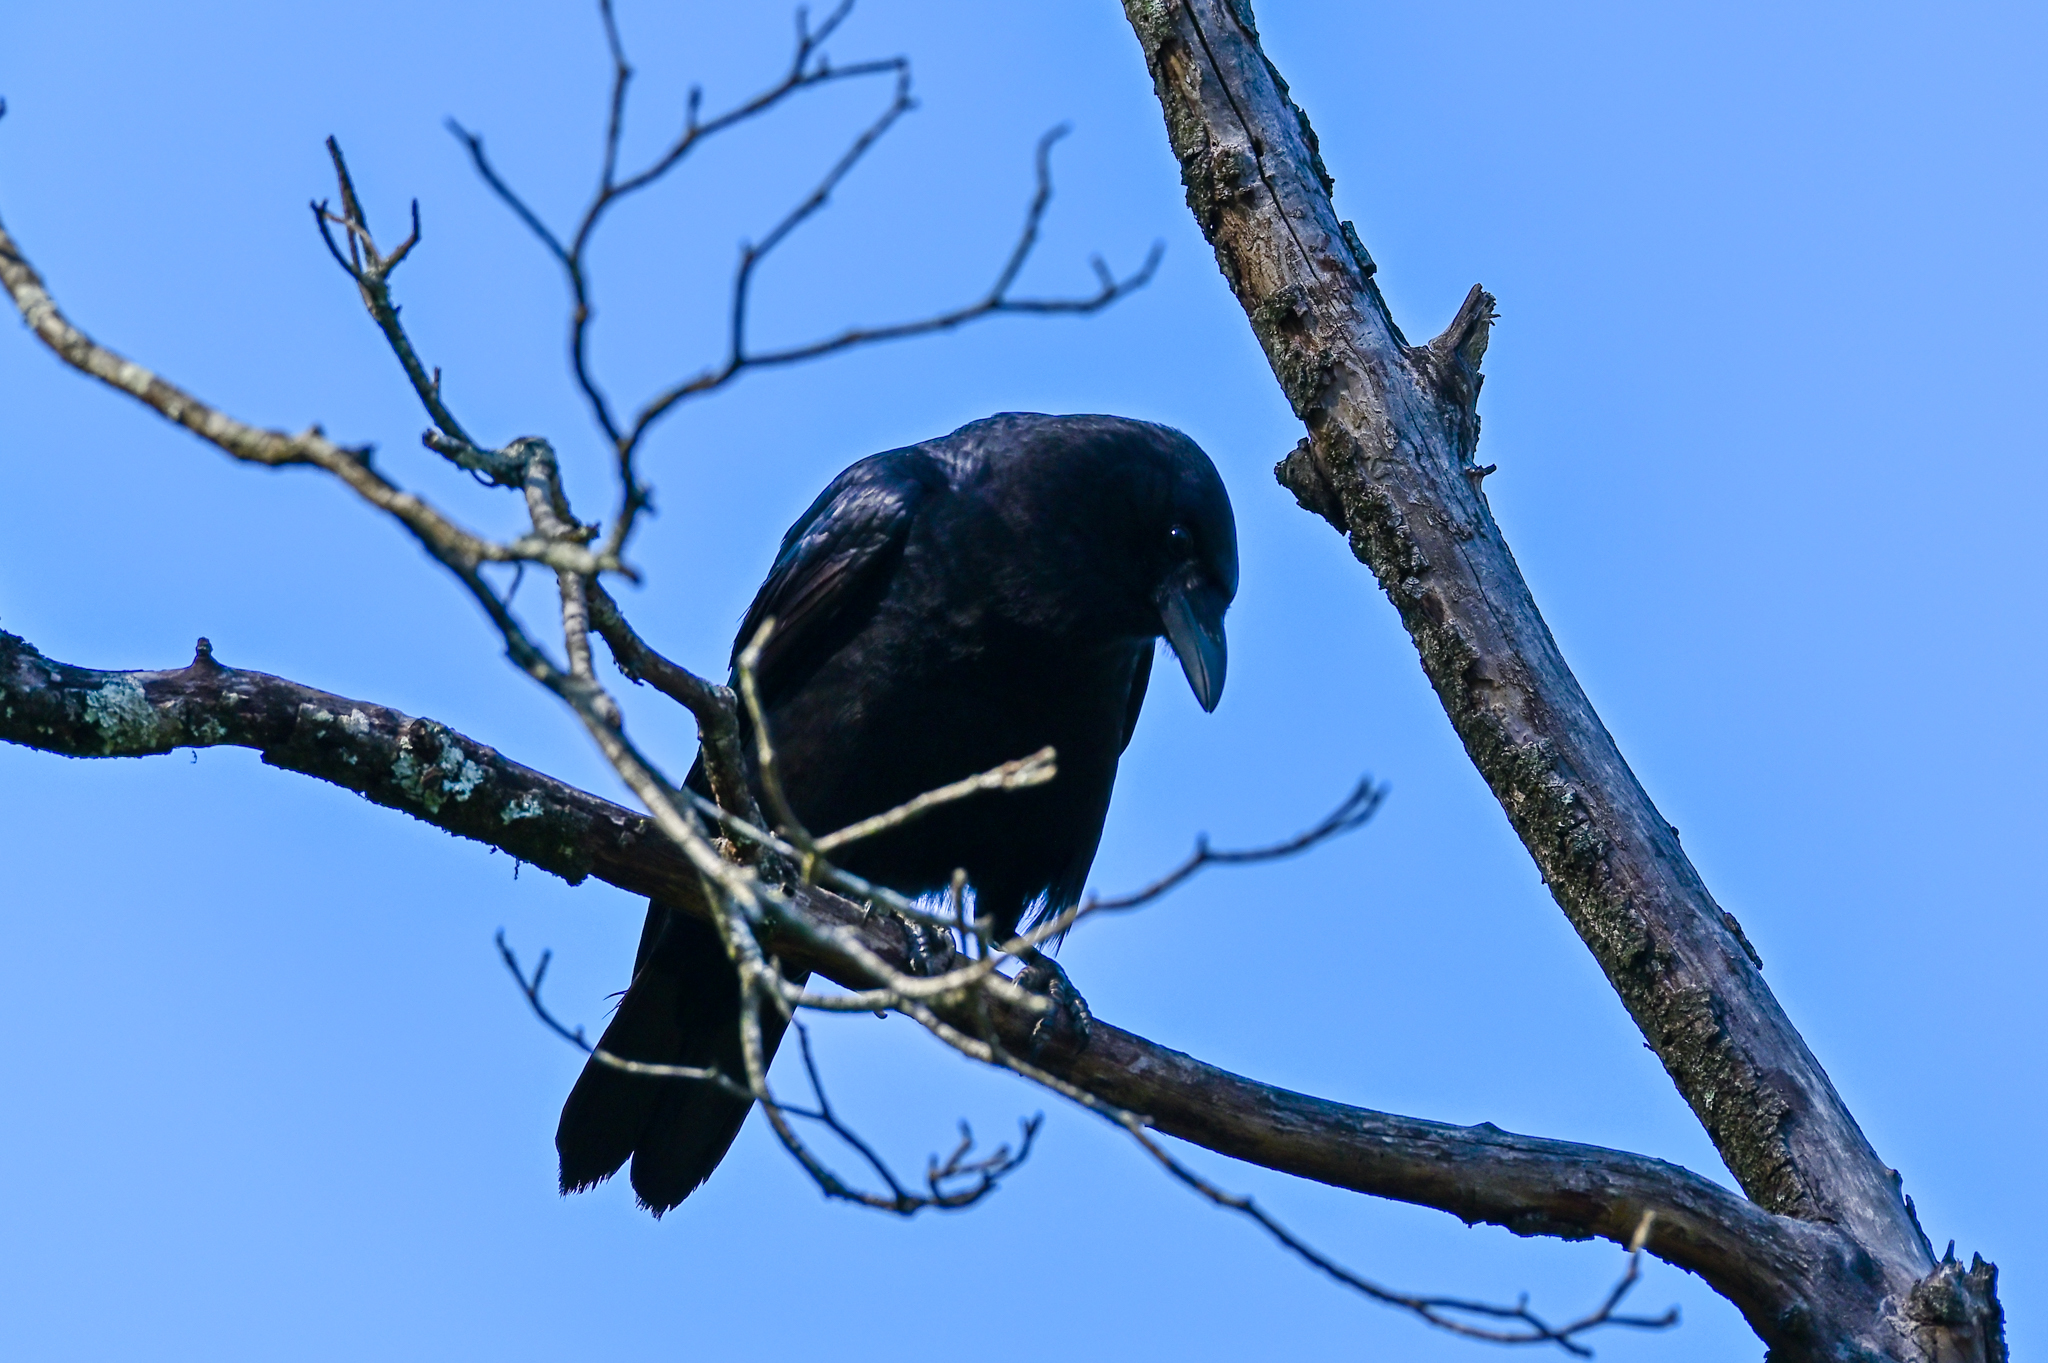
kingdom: Animalia
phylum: Chordata
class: Aves
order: Passeriformes
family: Corvidae
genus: Corvus
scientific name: Corvus brachyrhynchos
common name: American crow
